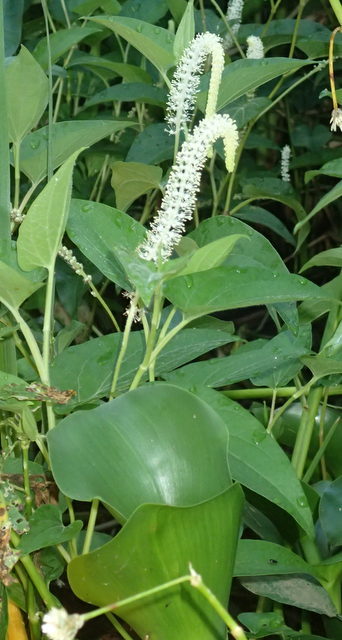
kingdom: Plantae
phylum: Tracheophyta
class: Magnoliopsida
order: Piperales
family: Saururaceae
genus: Saururus
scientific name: Saururus cernuus
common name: Lizard's-tail
